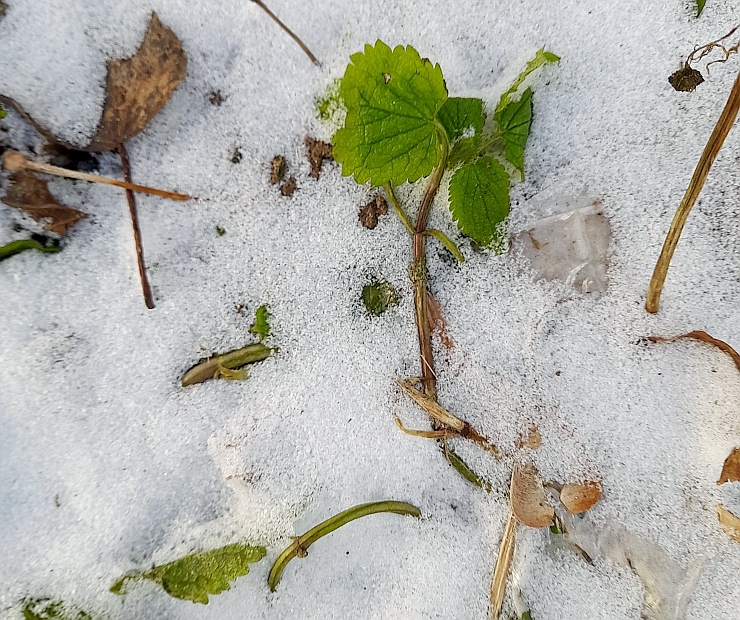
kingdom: Plantae
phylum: Tracheophyta
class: Magnoliopsida
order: Lamiales
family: Lamiaceae
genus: Lamium
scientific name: Lamium album
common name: White dead-nettle
